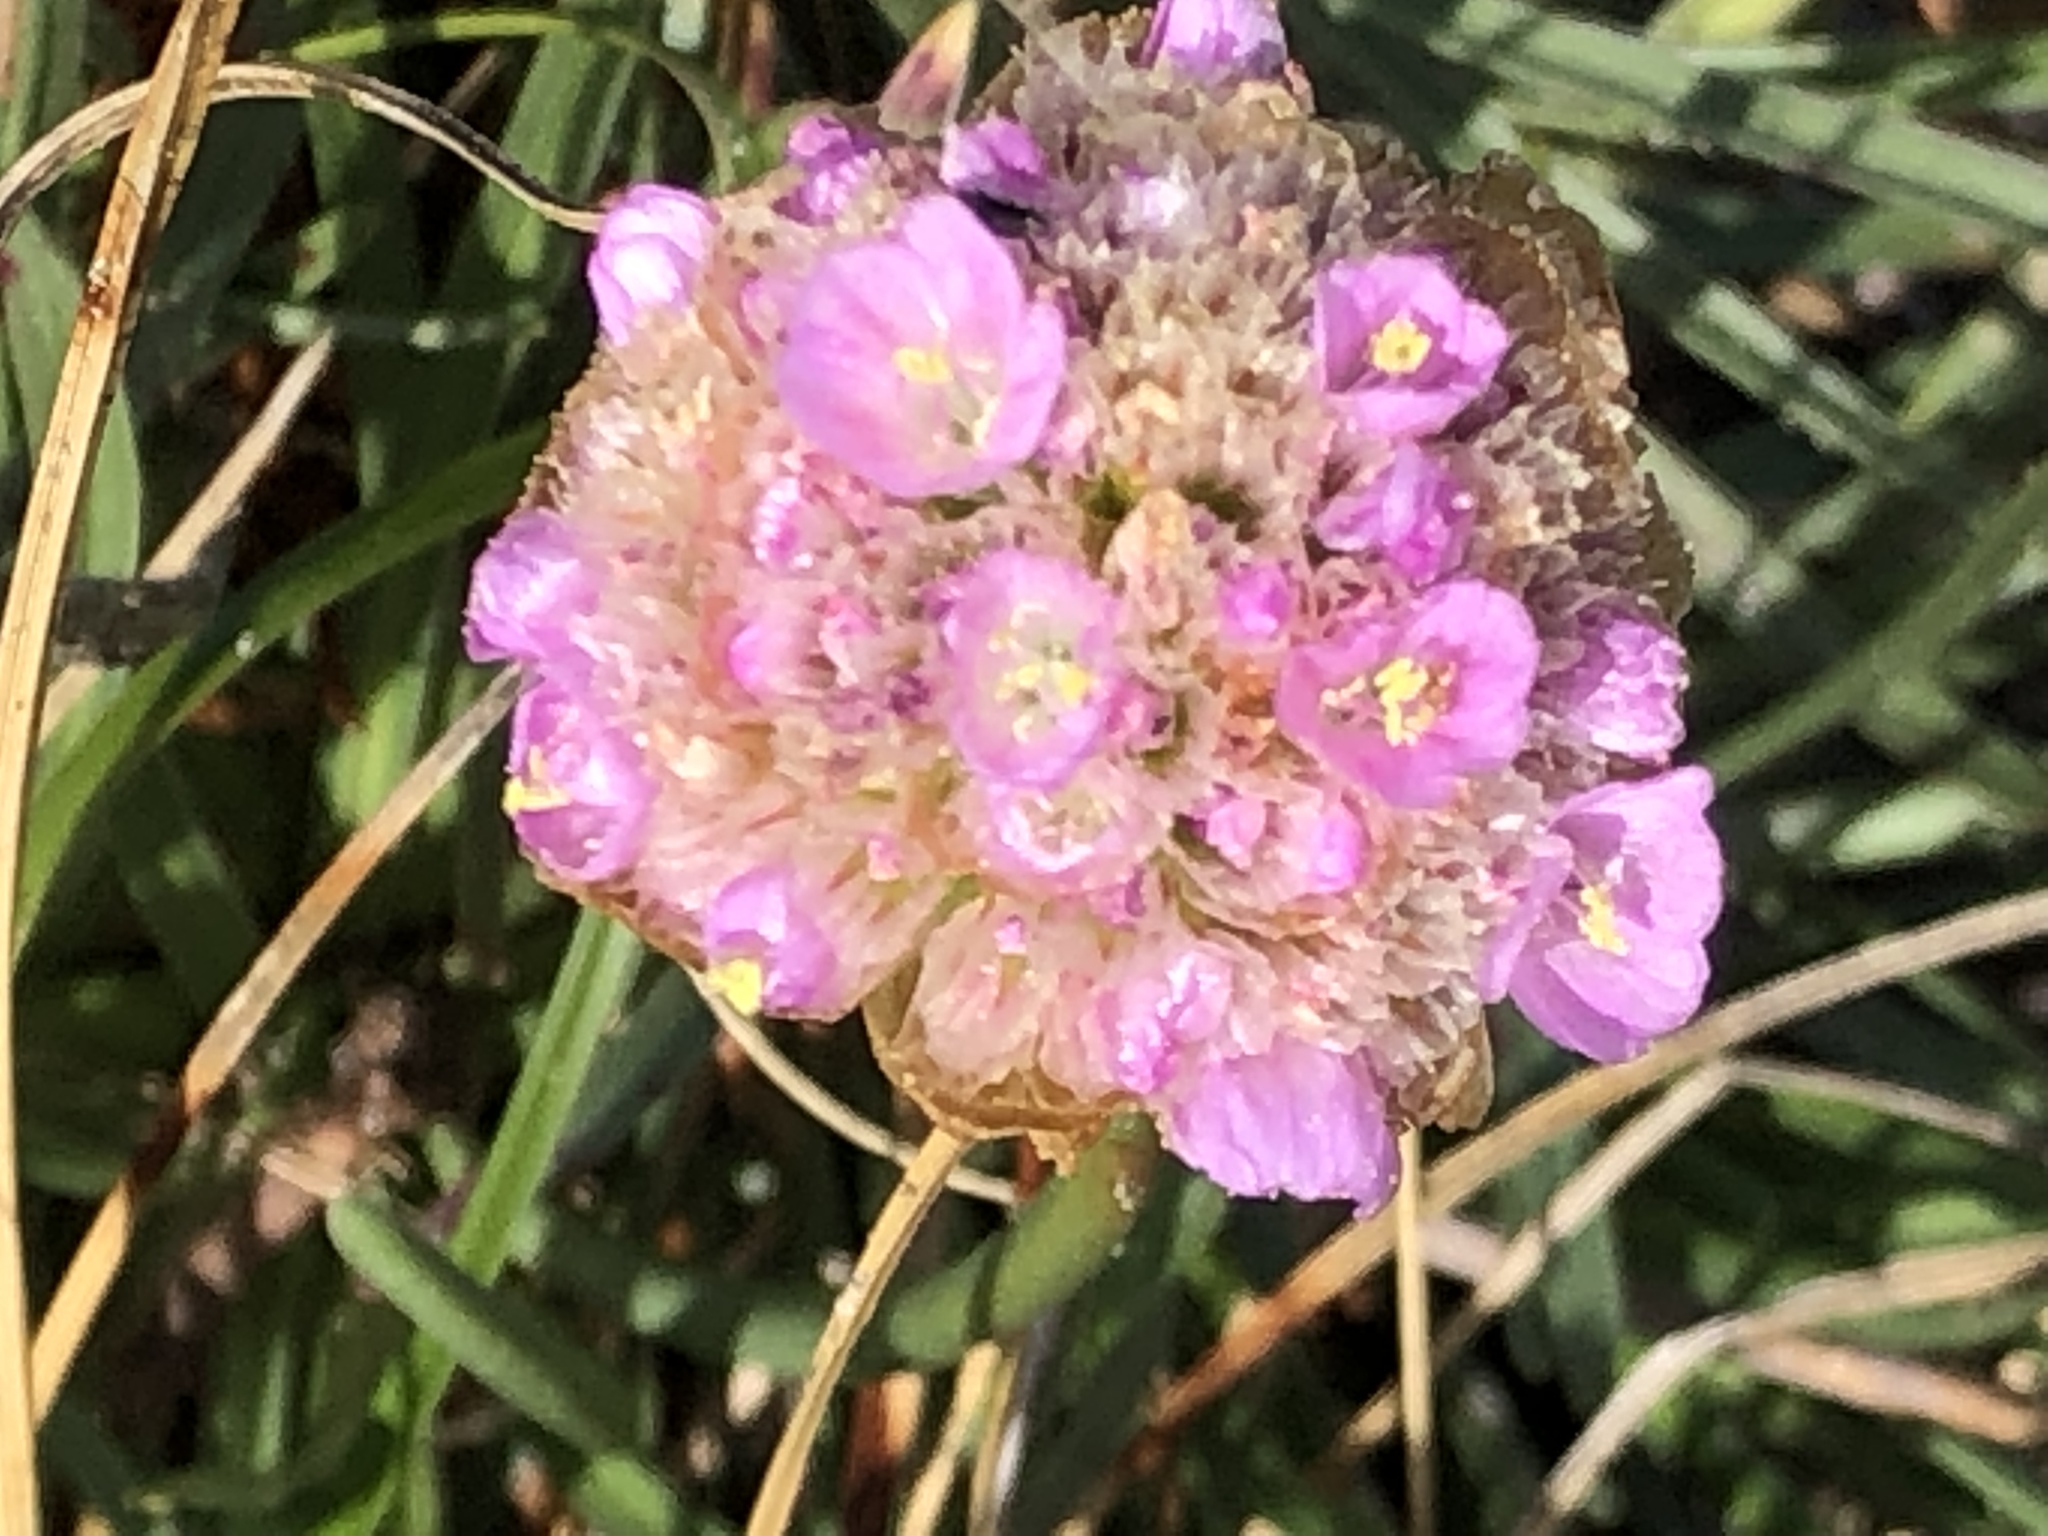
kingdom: Plantae
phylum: Tracheophyta
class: Magnoliopsida
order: Caryophyllales
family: Plumbaginaceae
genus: Armeria
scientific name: Armeria maritima
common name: Thrift
